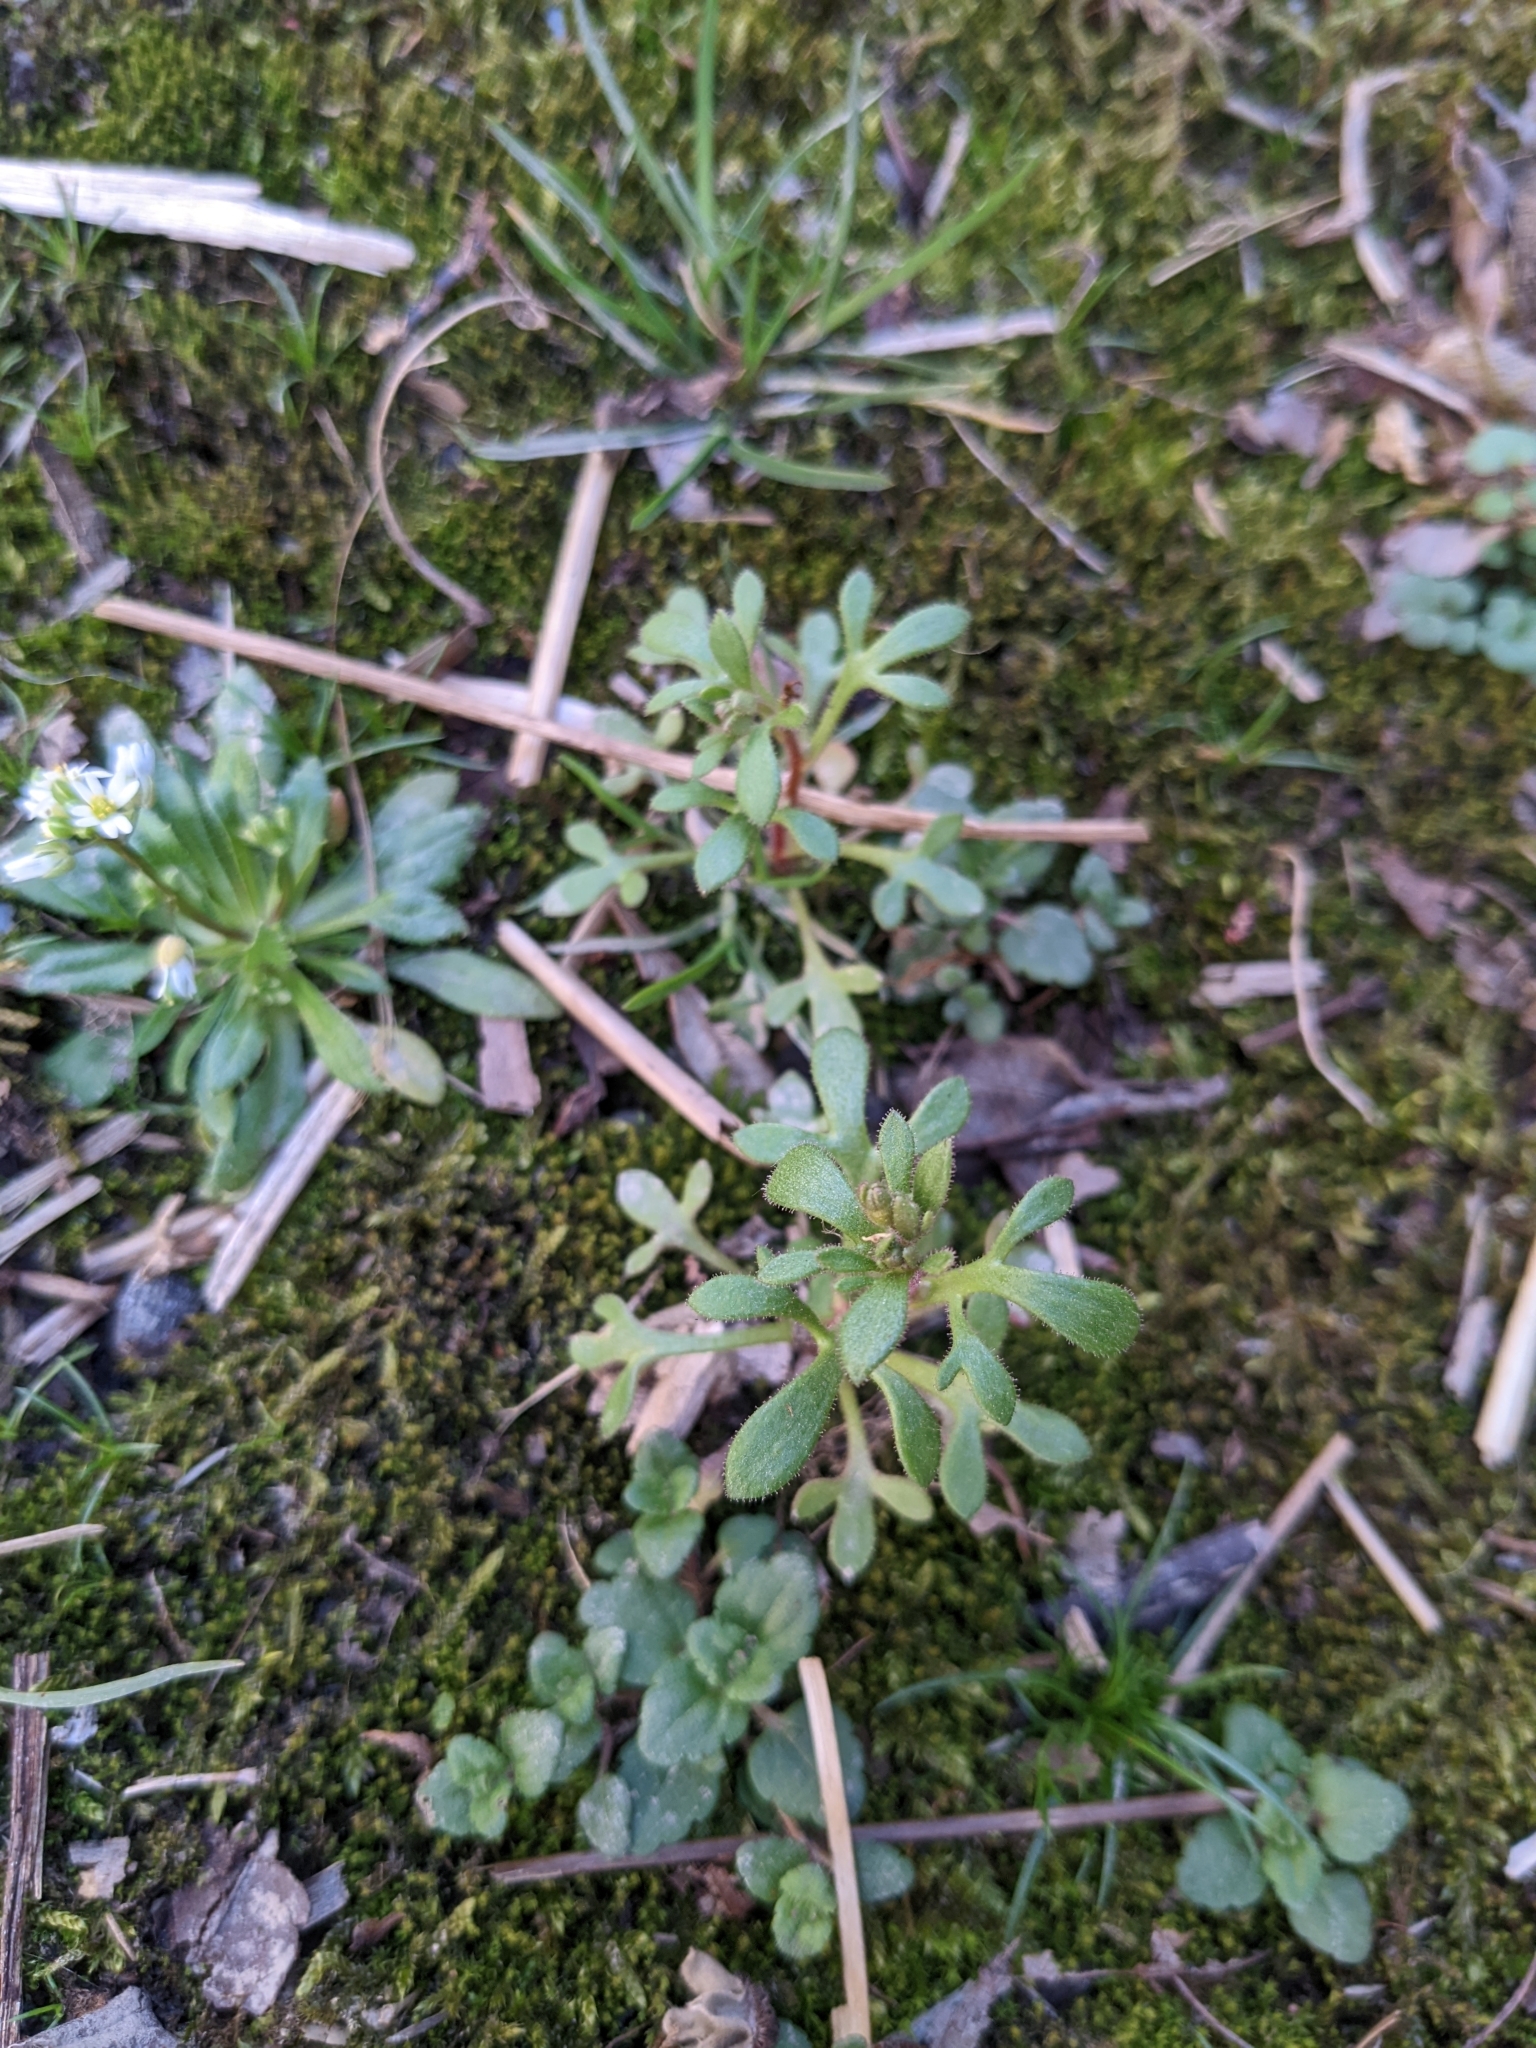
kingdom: Plantae
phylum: Tracheophyta
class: Magnoliopsida
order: Saxifragales
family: Saxifragaceae
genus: Saxifraga
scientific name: Saxifraga tridactylites
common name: Rue-leaved saxifrage
